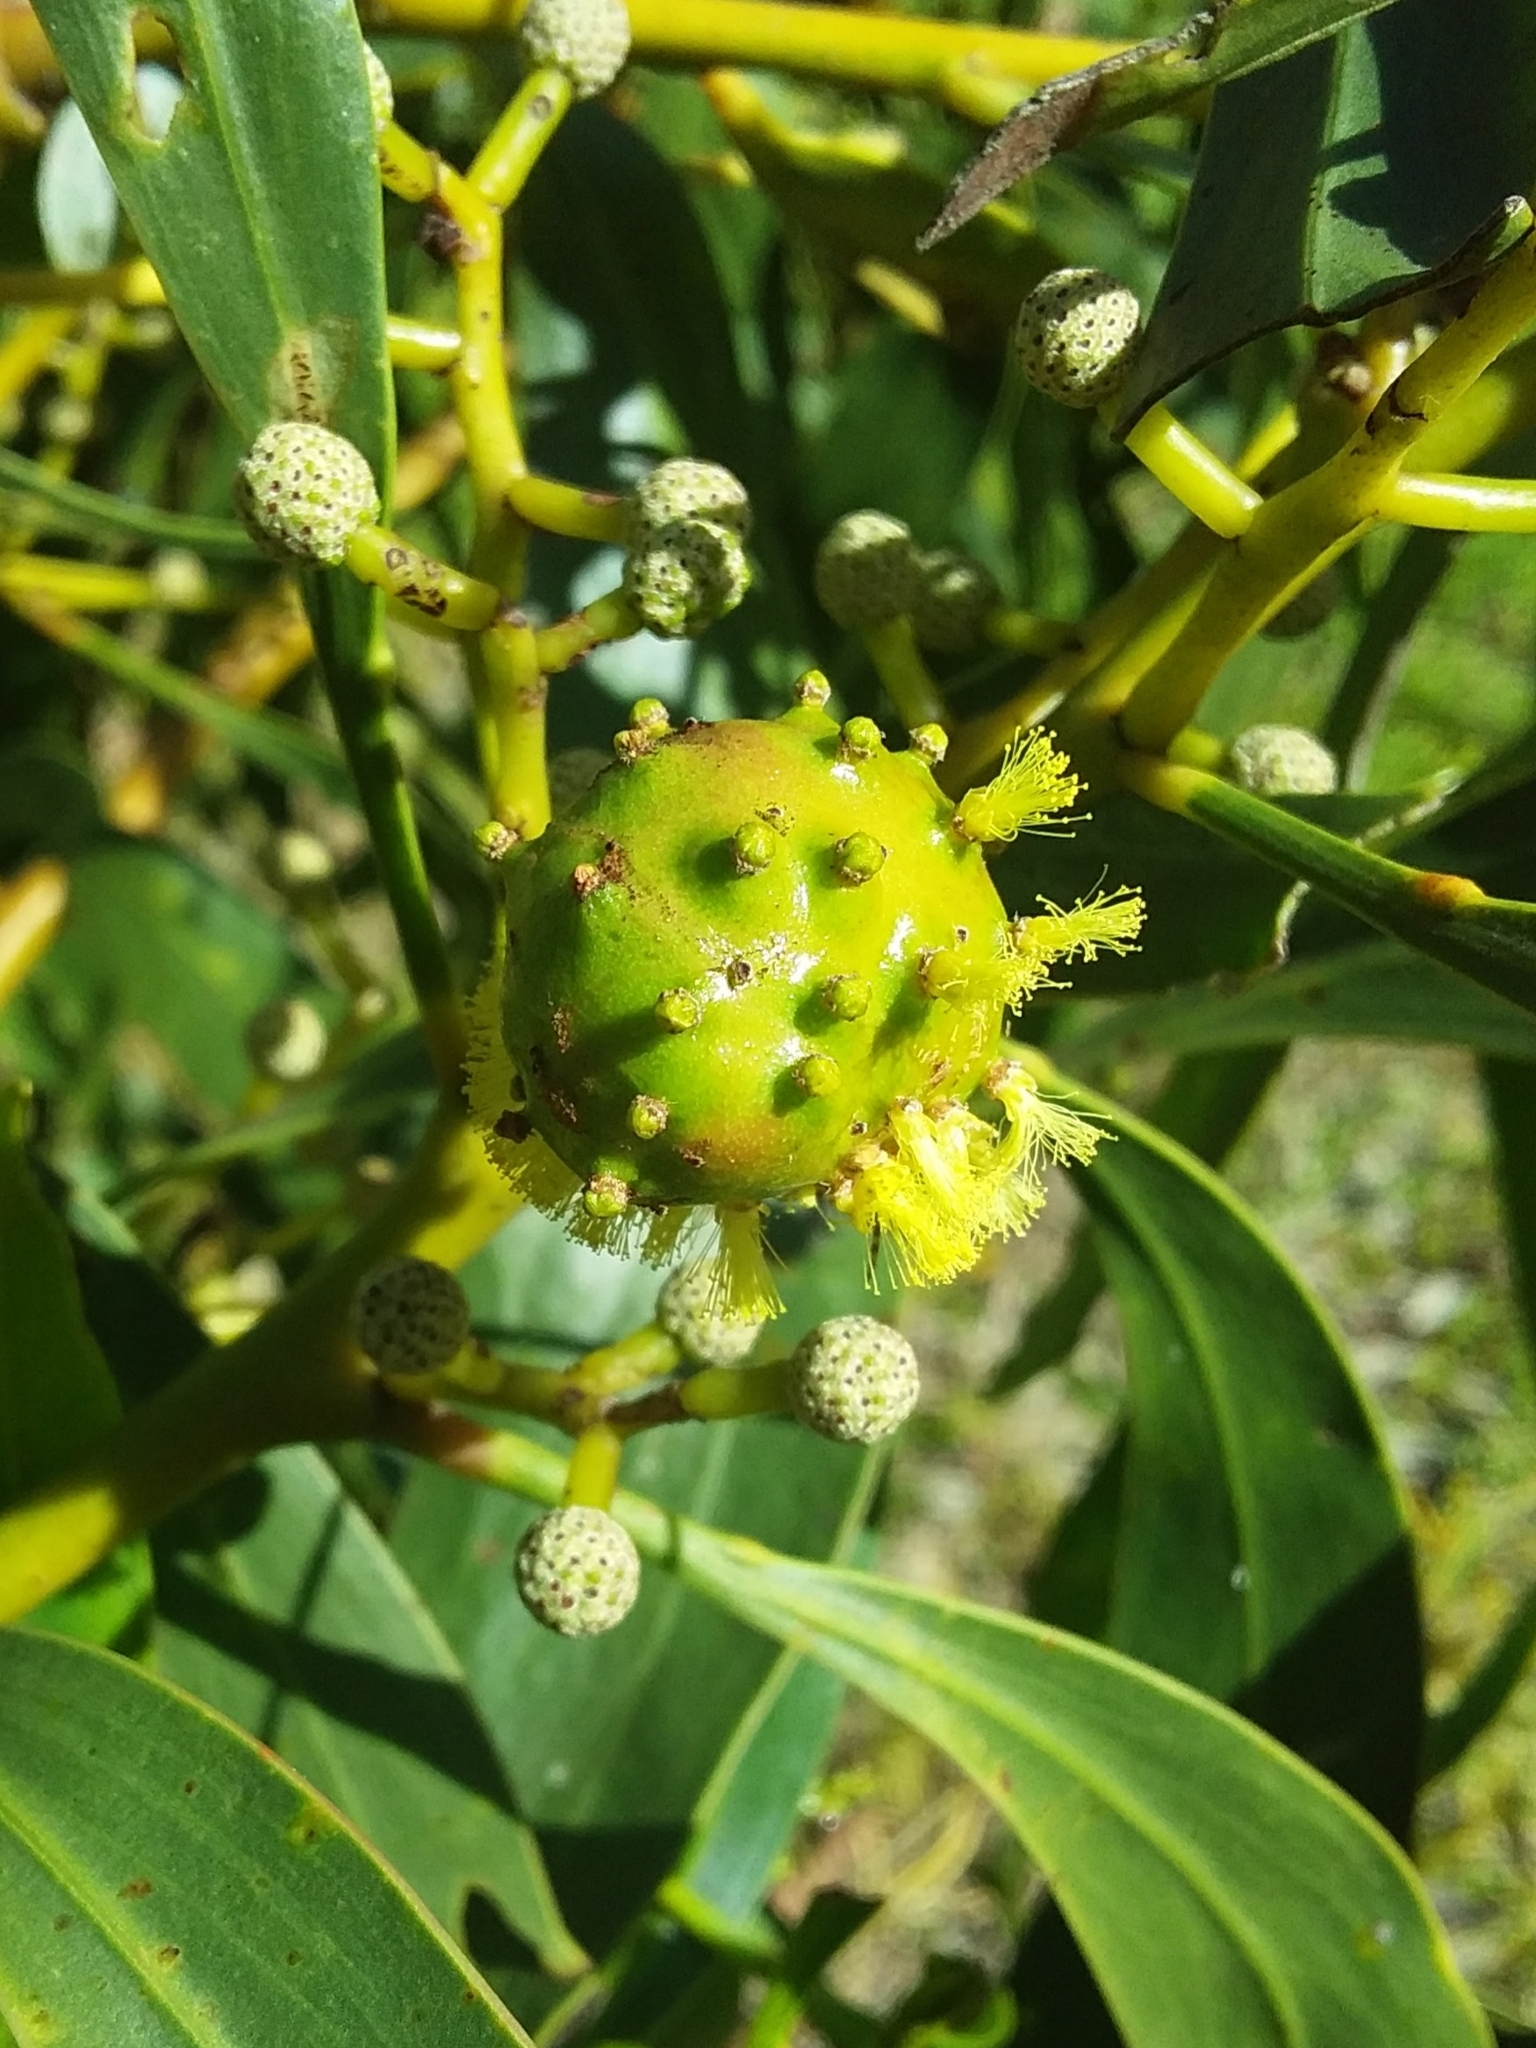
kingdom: Animalia
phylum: Arthropoda
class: Insecta
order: Hymenoptera
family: Pteromalidae
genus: Trichilogaster
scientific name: Trichilogaster signiventris
